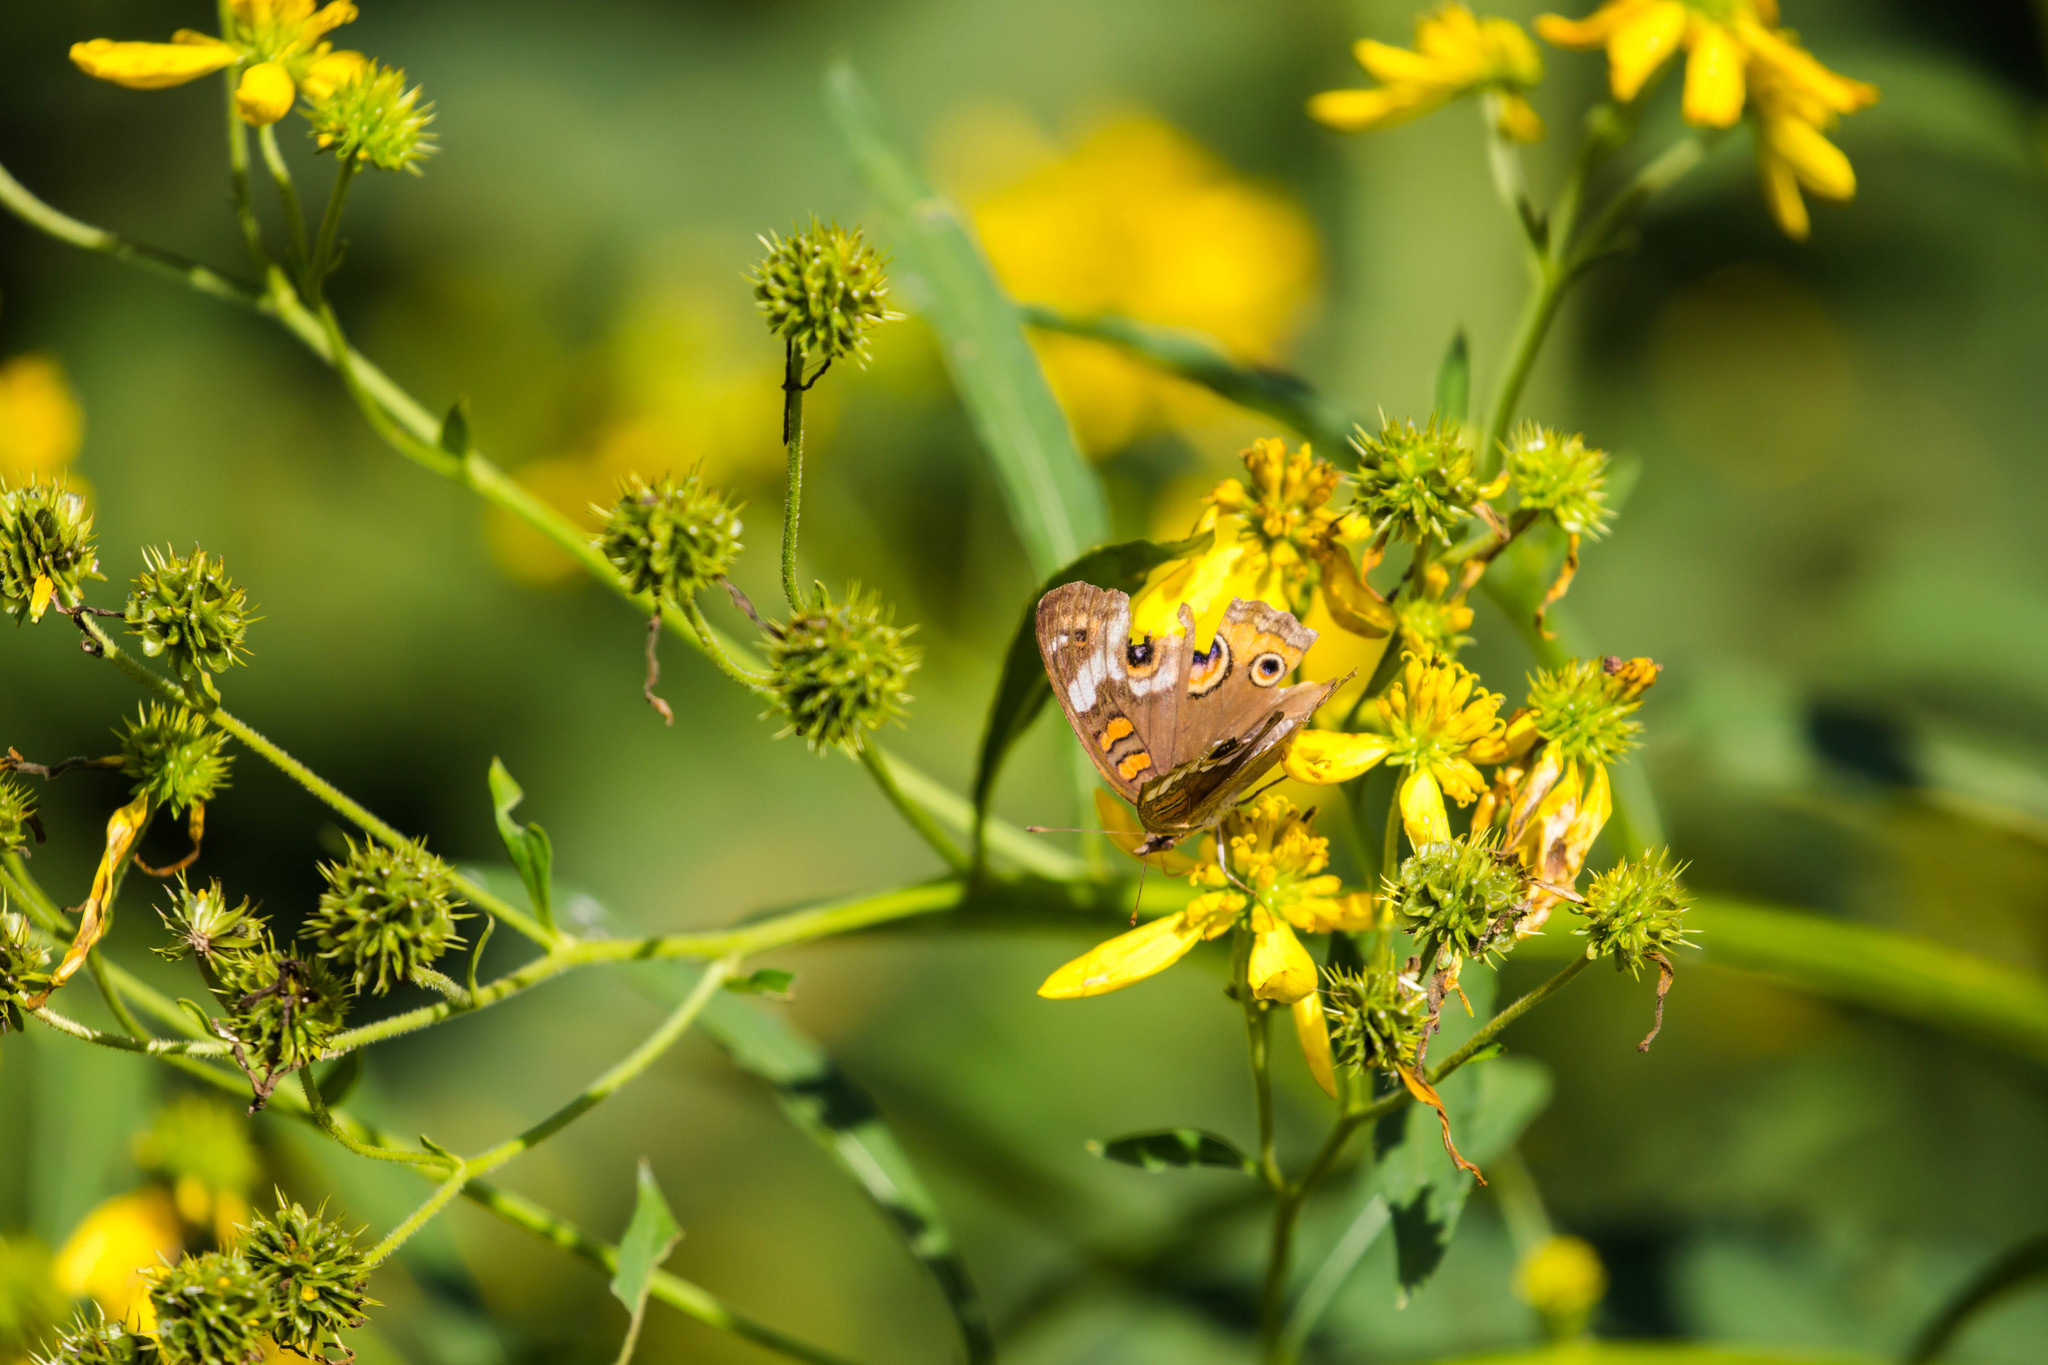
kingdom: Animalia
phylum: Arthropoda
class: Insecta
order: Lepidoptera
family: Nymphalidae
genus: Junonia
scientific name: Junonia coenia
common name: Common buckeye
